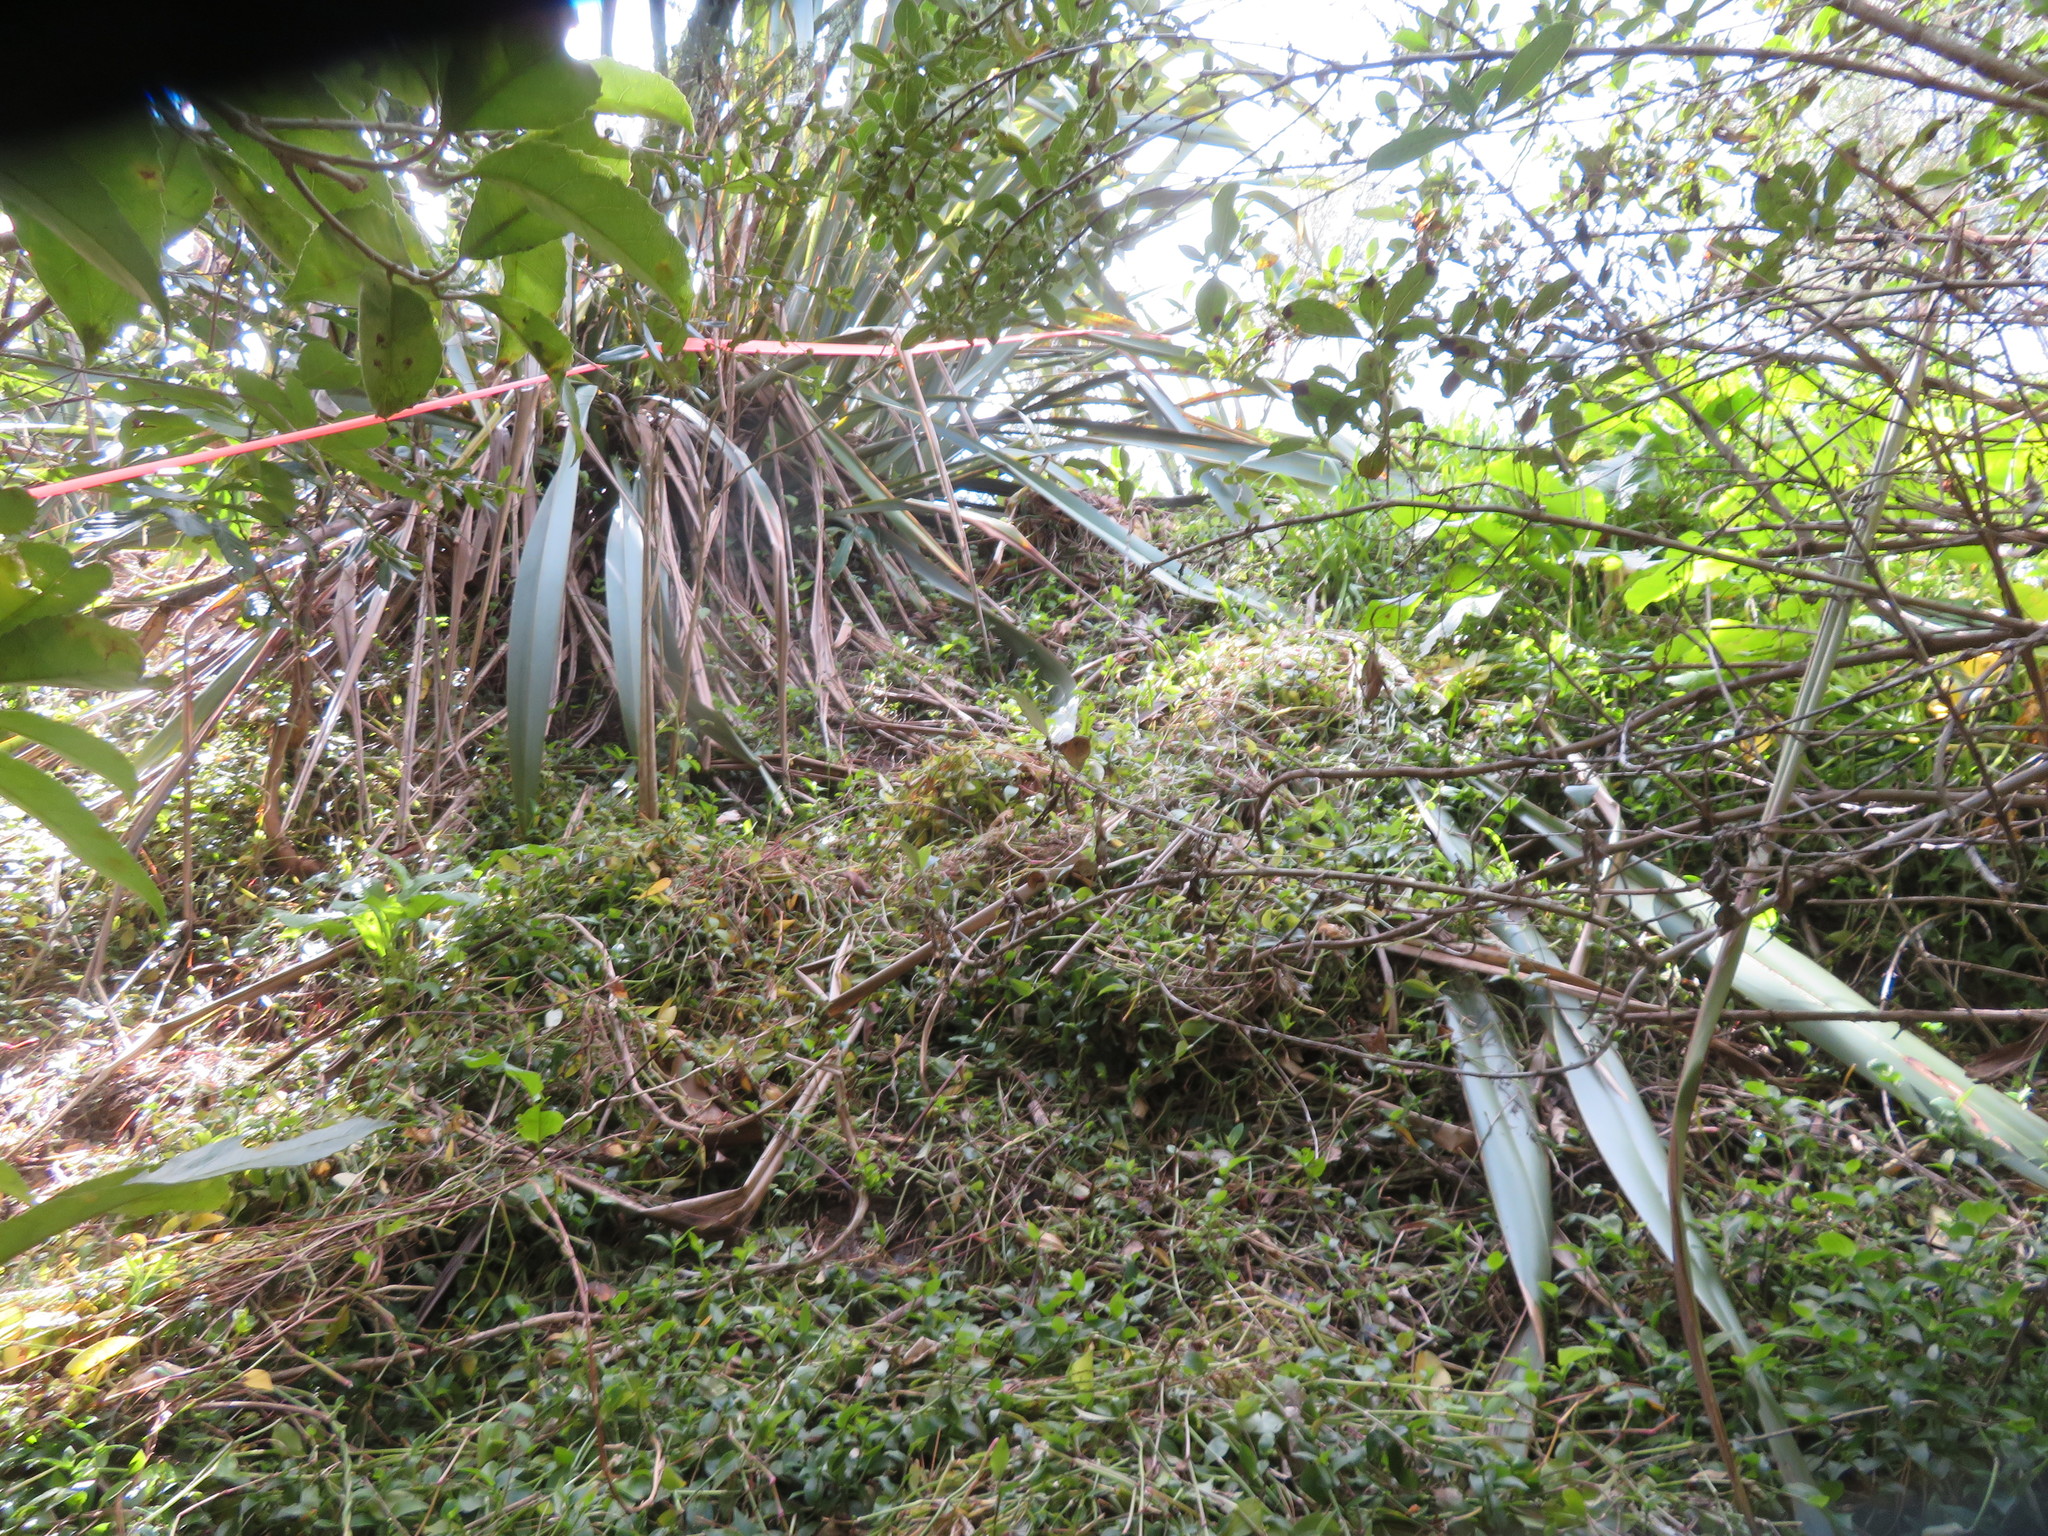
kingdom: Plantae
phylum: Tracheophyta
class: Liliopsida
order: Commelinales
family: Commelinaceae
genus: Tradescantia
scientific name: Tradescantia fluminensis
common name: Wandering-jew
